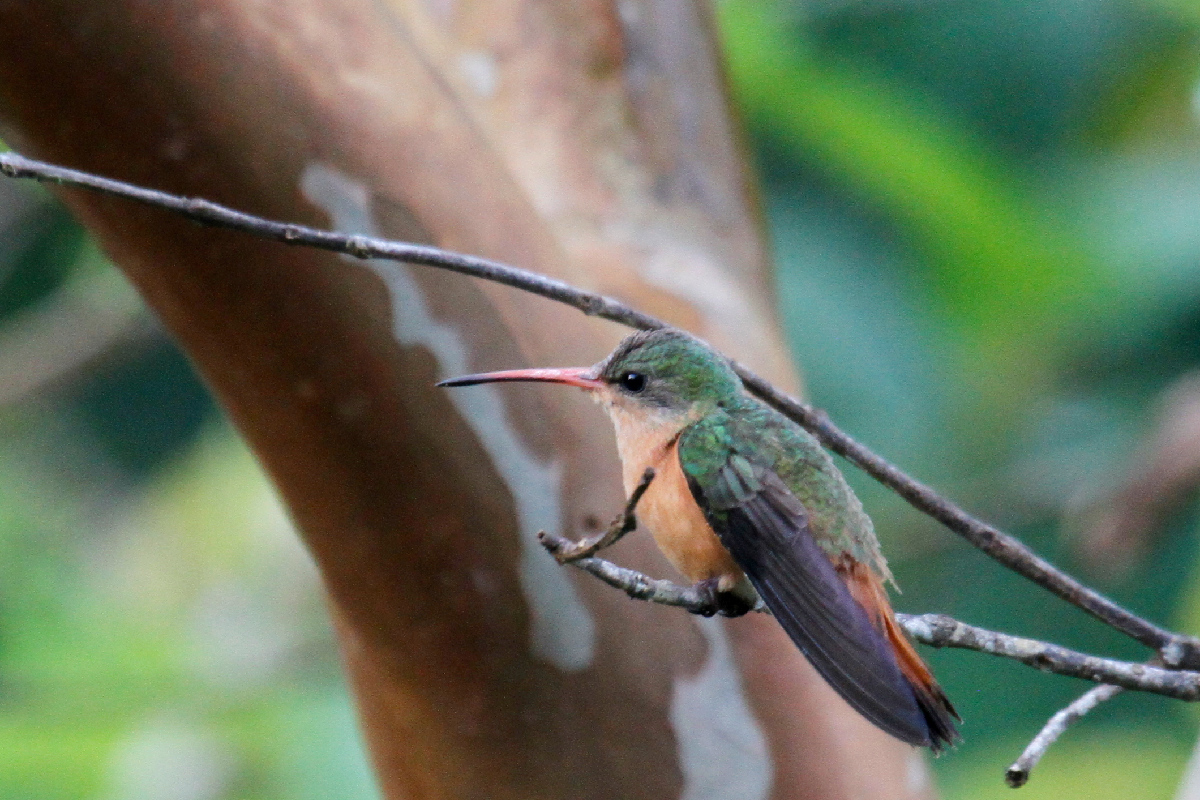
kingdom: Animalia
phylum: Chordata
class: Aves
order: Apodiformes
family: Trochilidae
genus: Amazilia
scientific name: Amazilia rutila
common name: Cinnamon hummingbird
